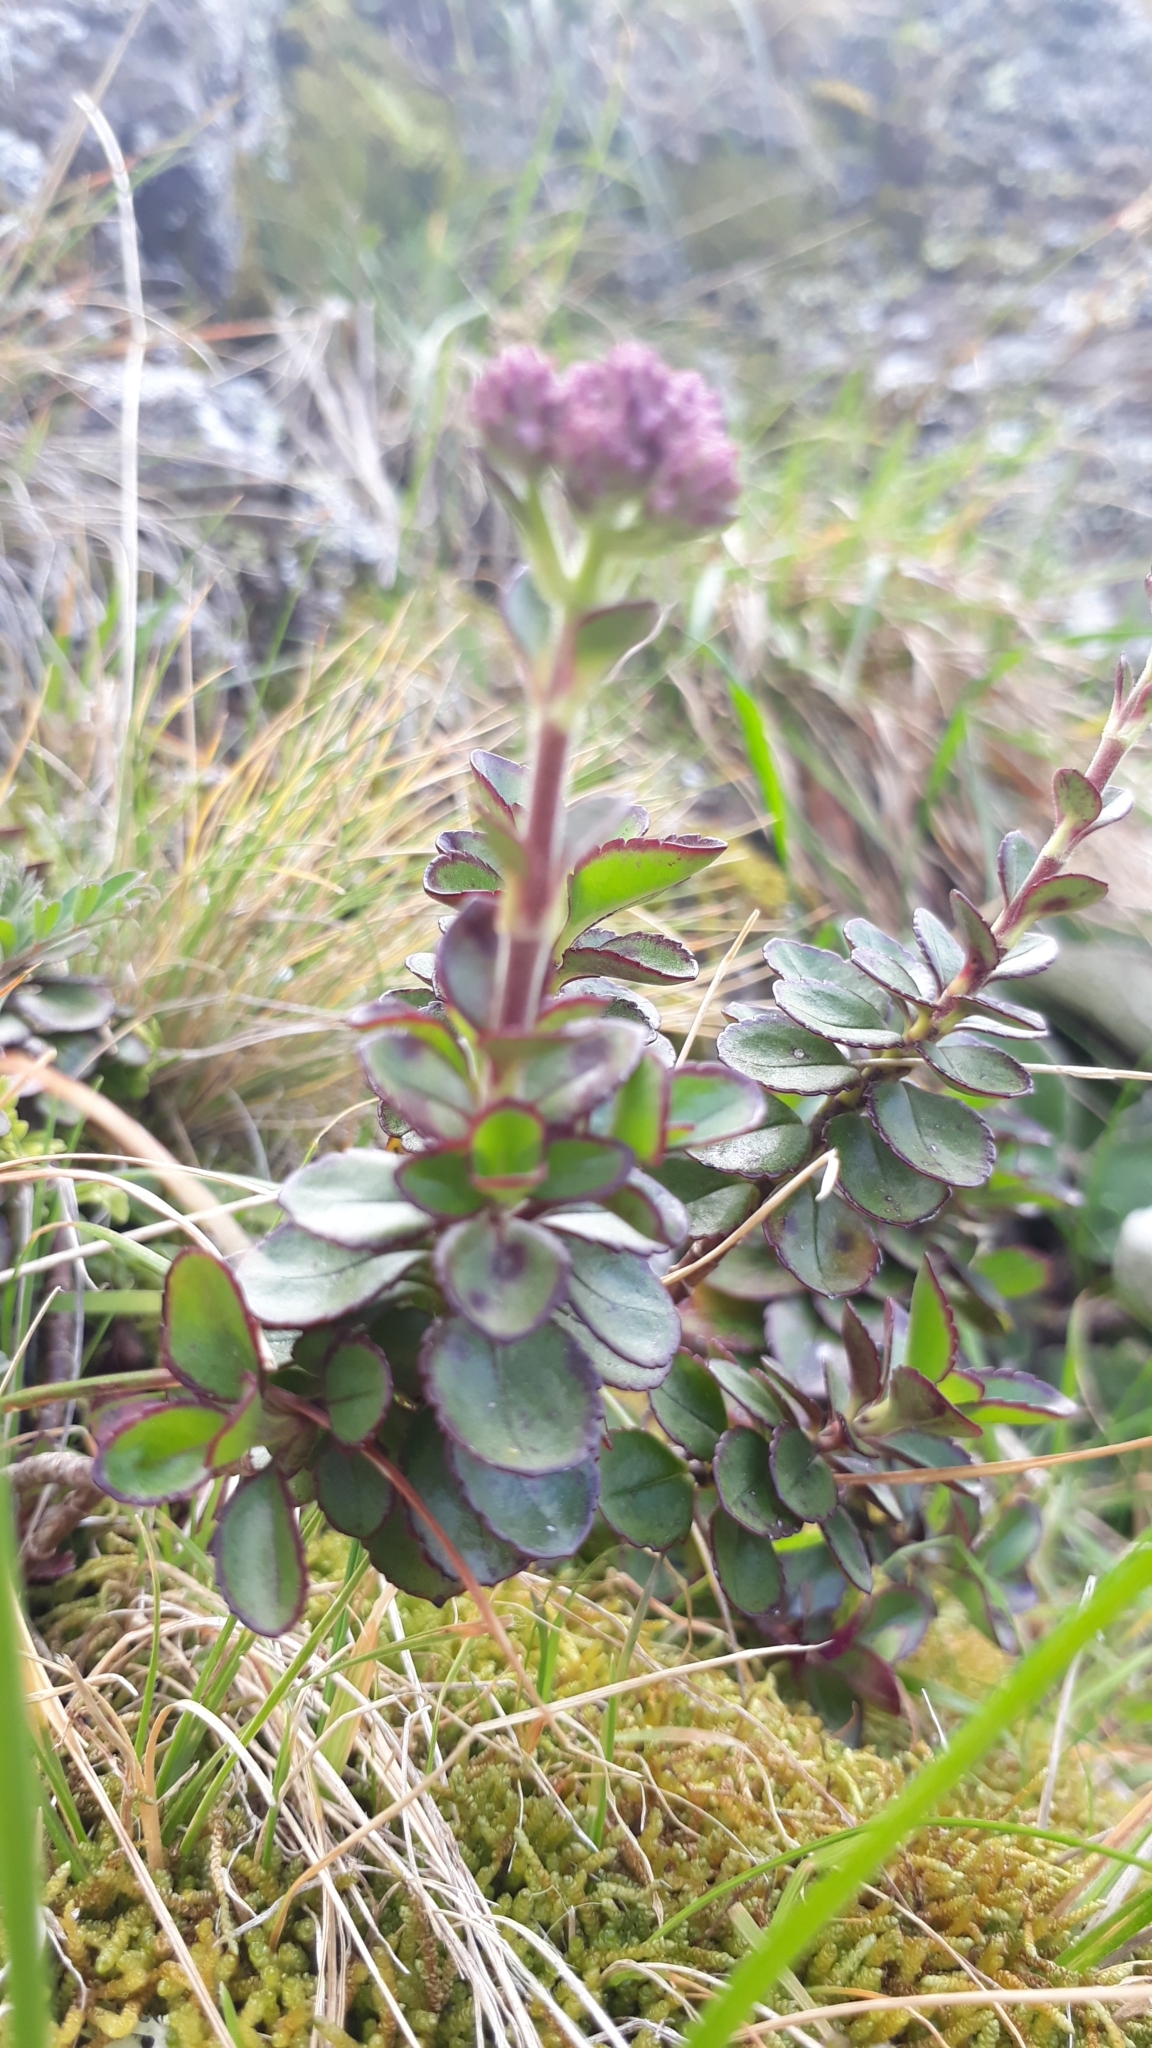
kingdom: Plantae
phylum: Marchantiophyta
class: Marchantiopsida
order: Lunulariales
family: Lunulariaceae
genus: Lunularia
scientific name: Lunularia cruciata
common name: Crescent-cup liverwort
